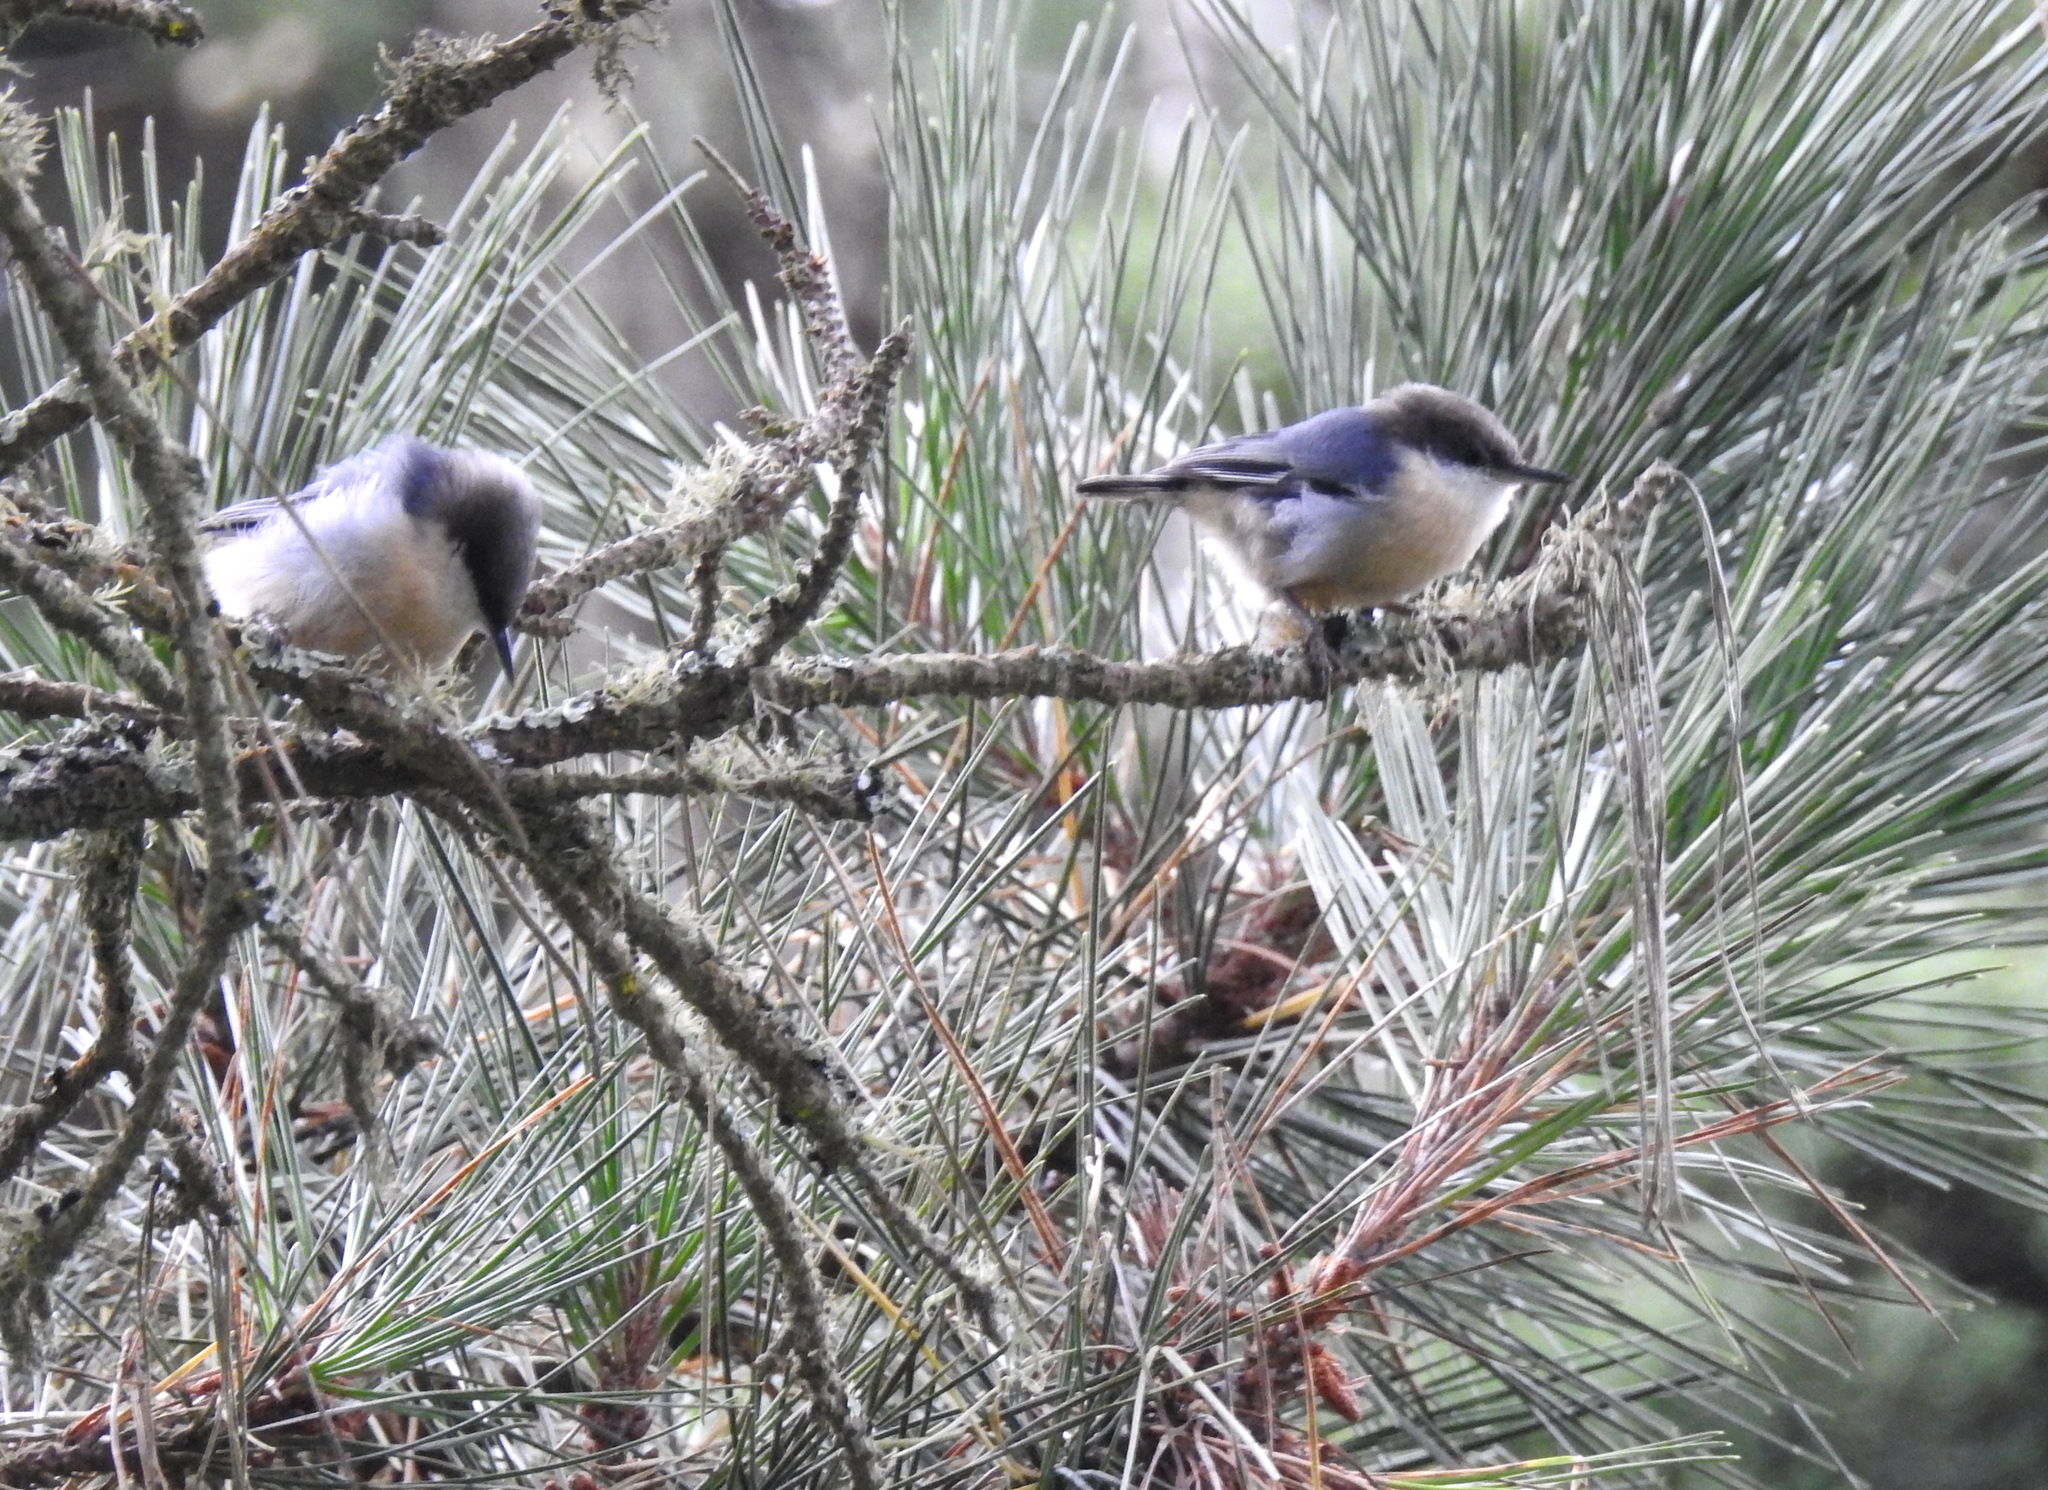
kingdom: Animalia
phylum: Chordata
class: Aves
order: Passeriformes
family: Sittidae
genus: Sitta
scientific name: Sitta pygmaea
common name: Pygmy nuthatch
